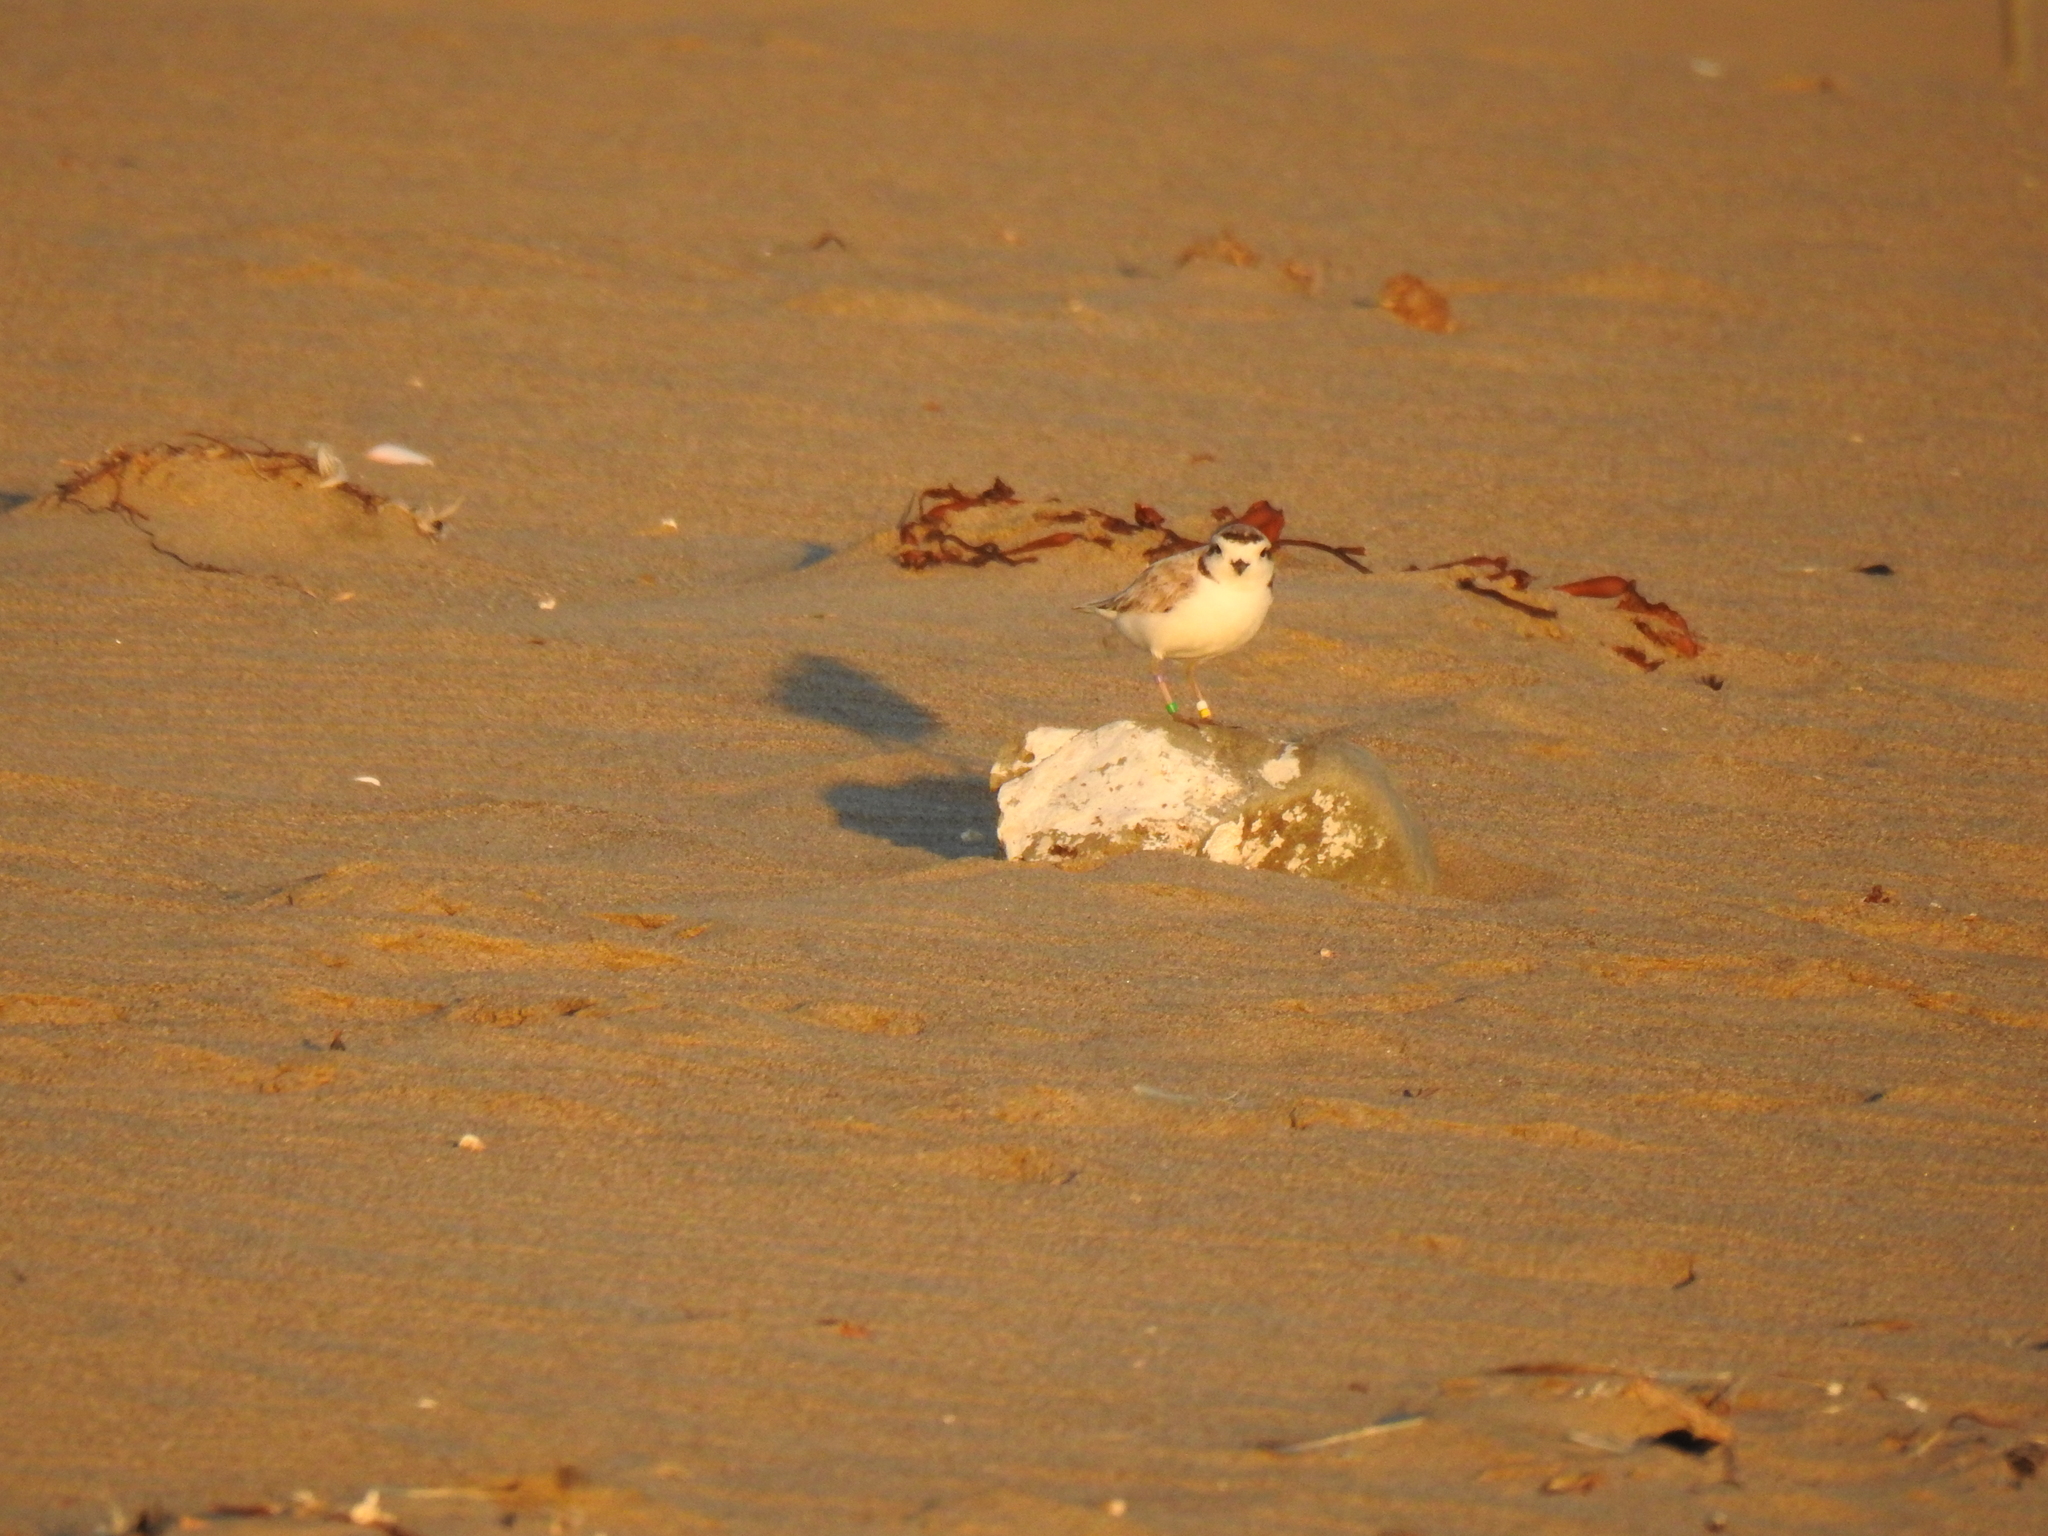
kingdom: Animalia
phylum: Chordata
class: Aves
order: Charadriiformes
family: Charadriidae
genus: Anarhynchus
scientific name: Anarhynchus
